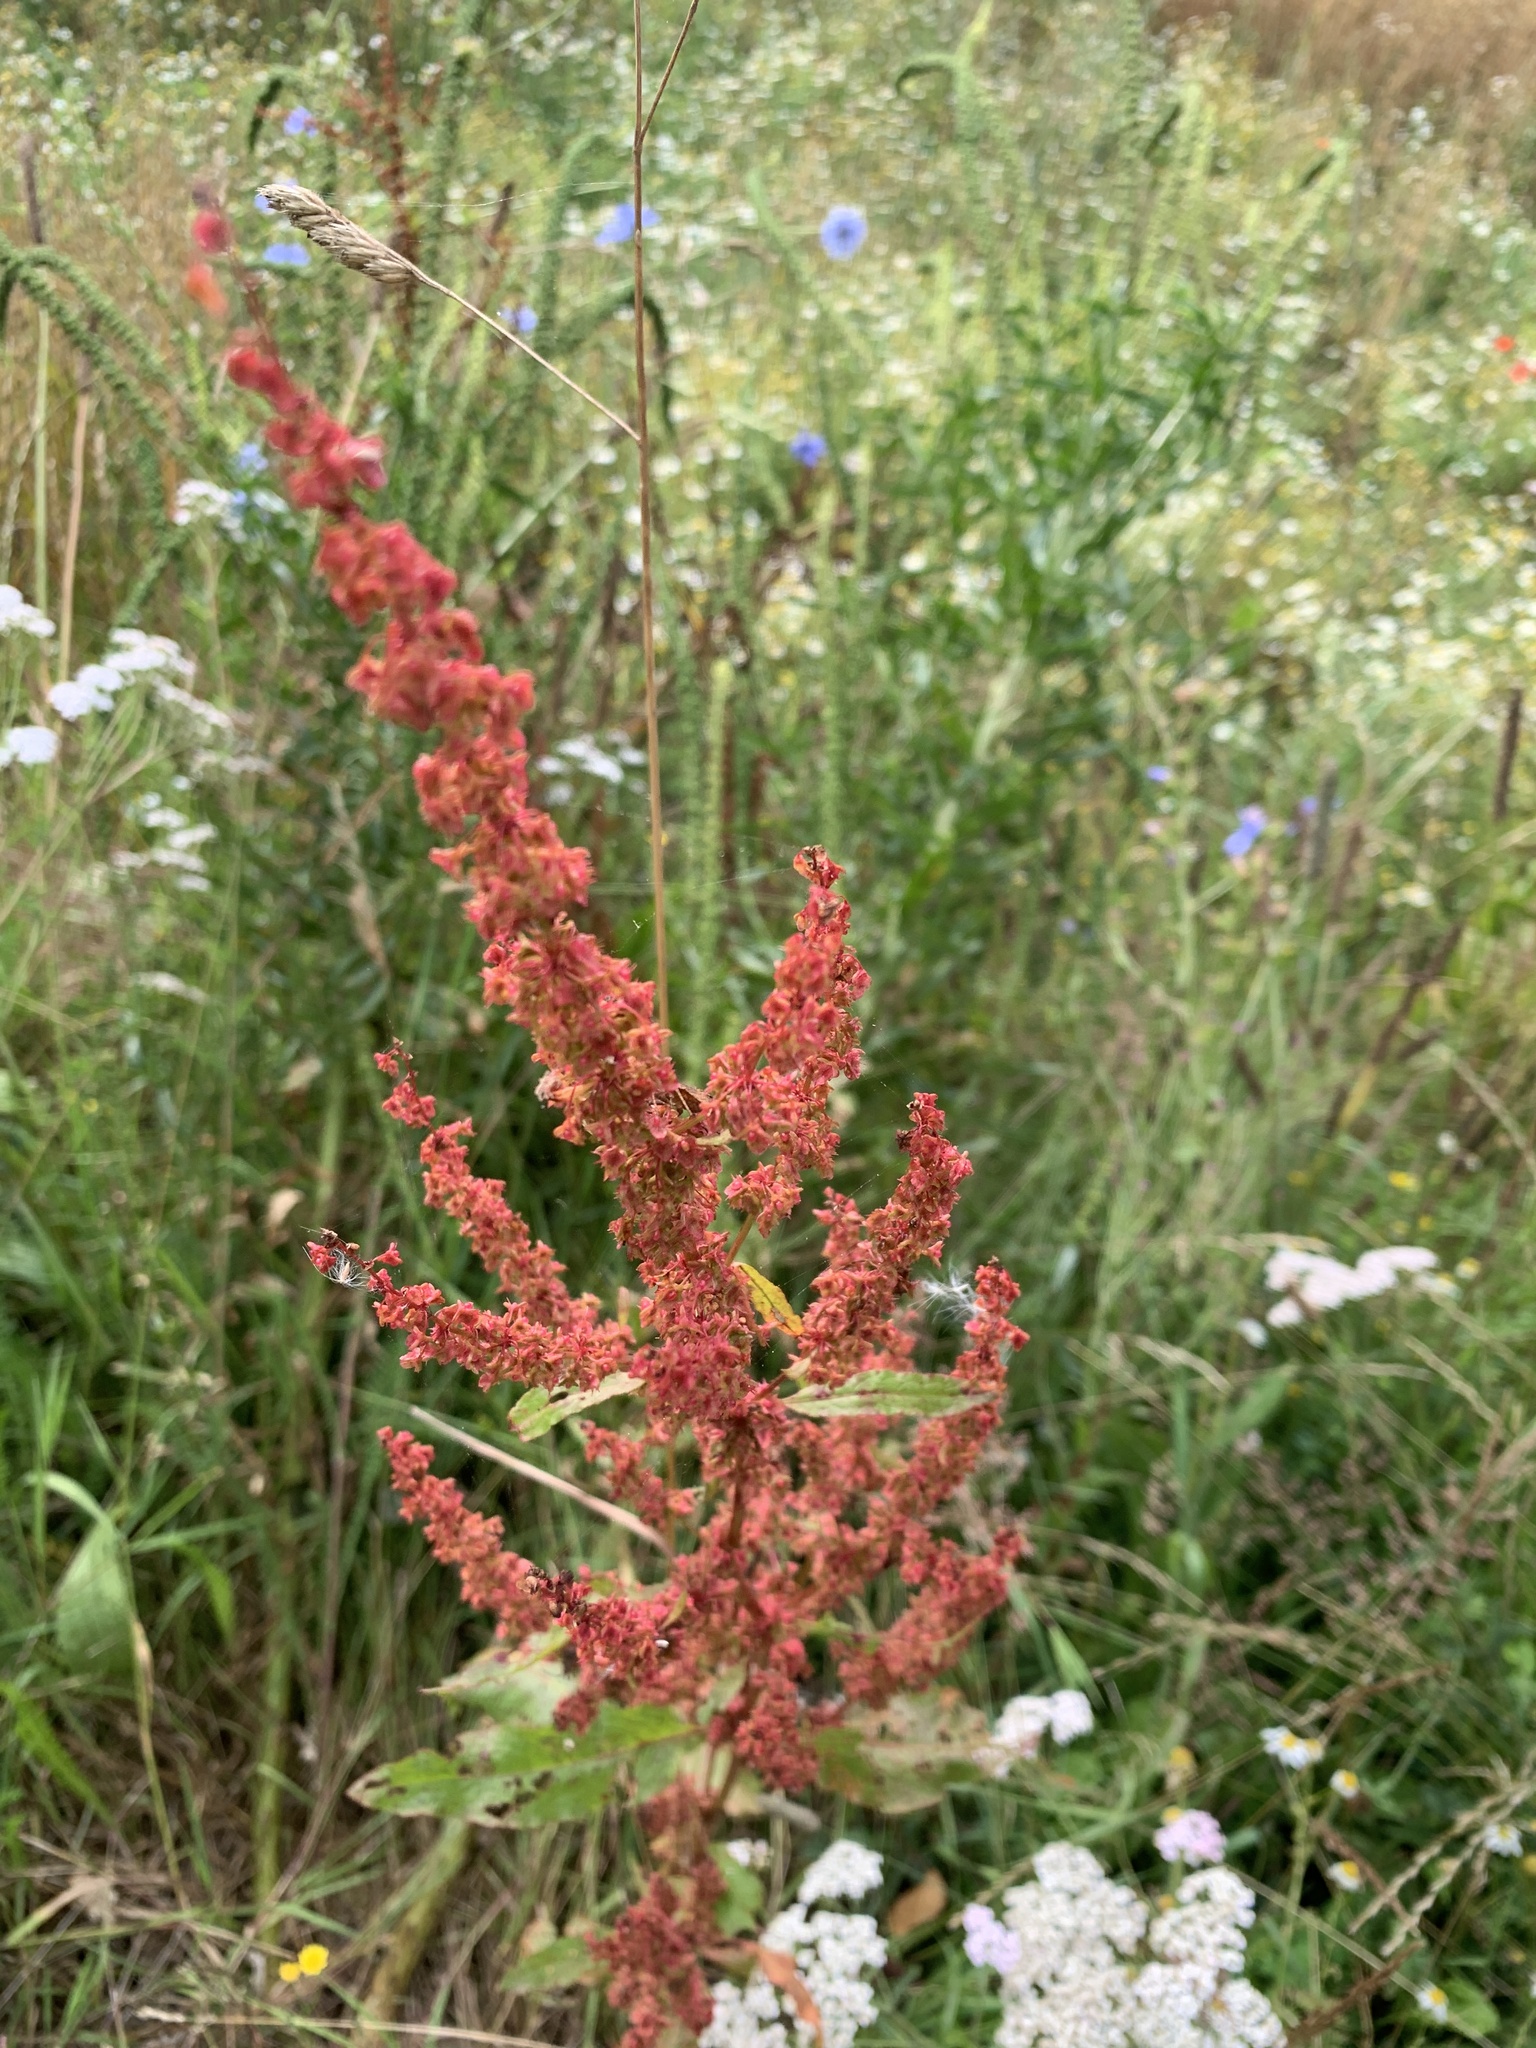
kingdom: Plantae
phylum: Tracheophyta
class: Magnoliopsida
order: Caryophyllales
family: Polygonaceae
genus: Rumex
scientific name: Rumex crispus
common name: Curled dock
